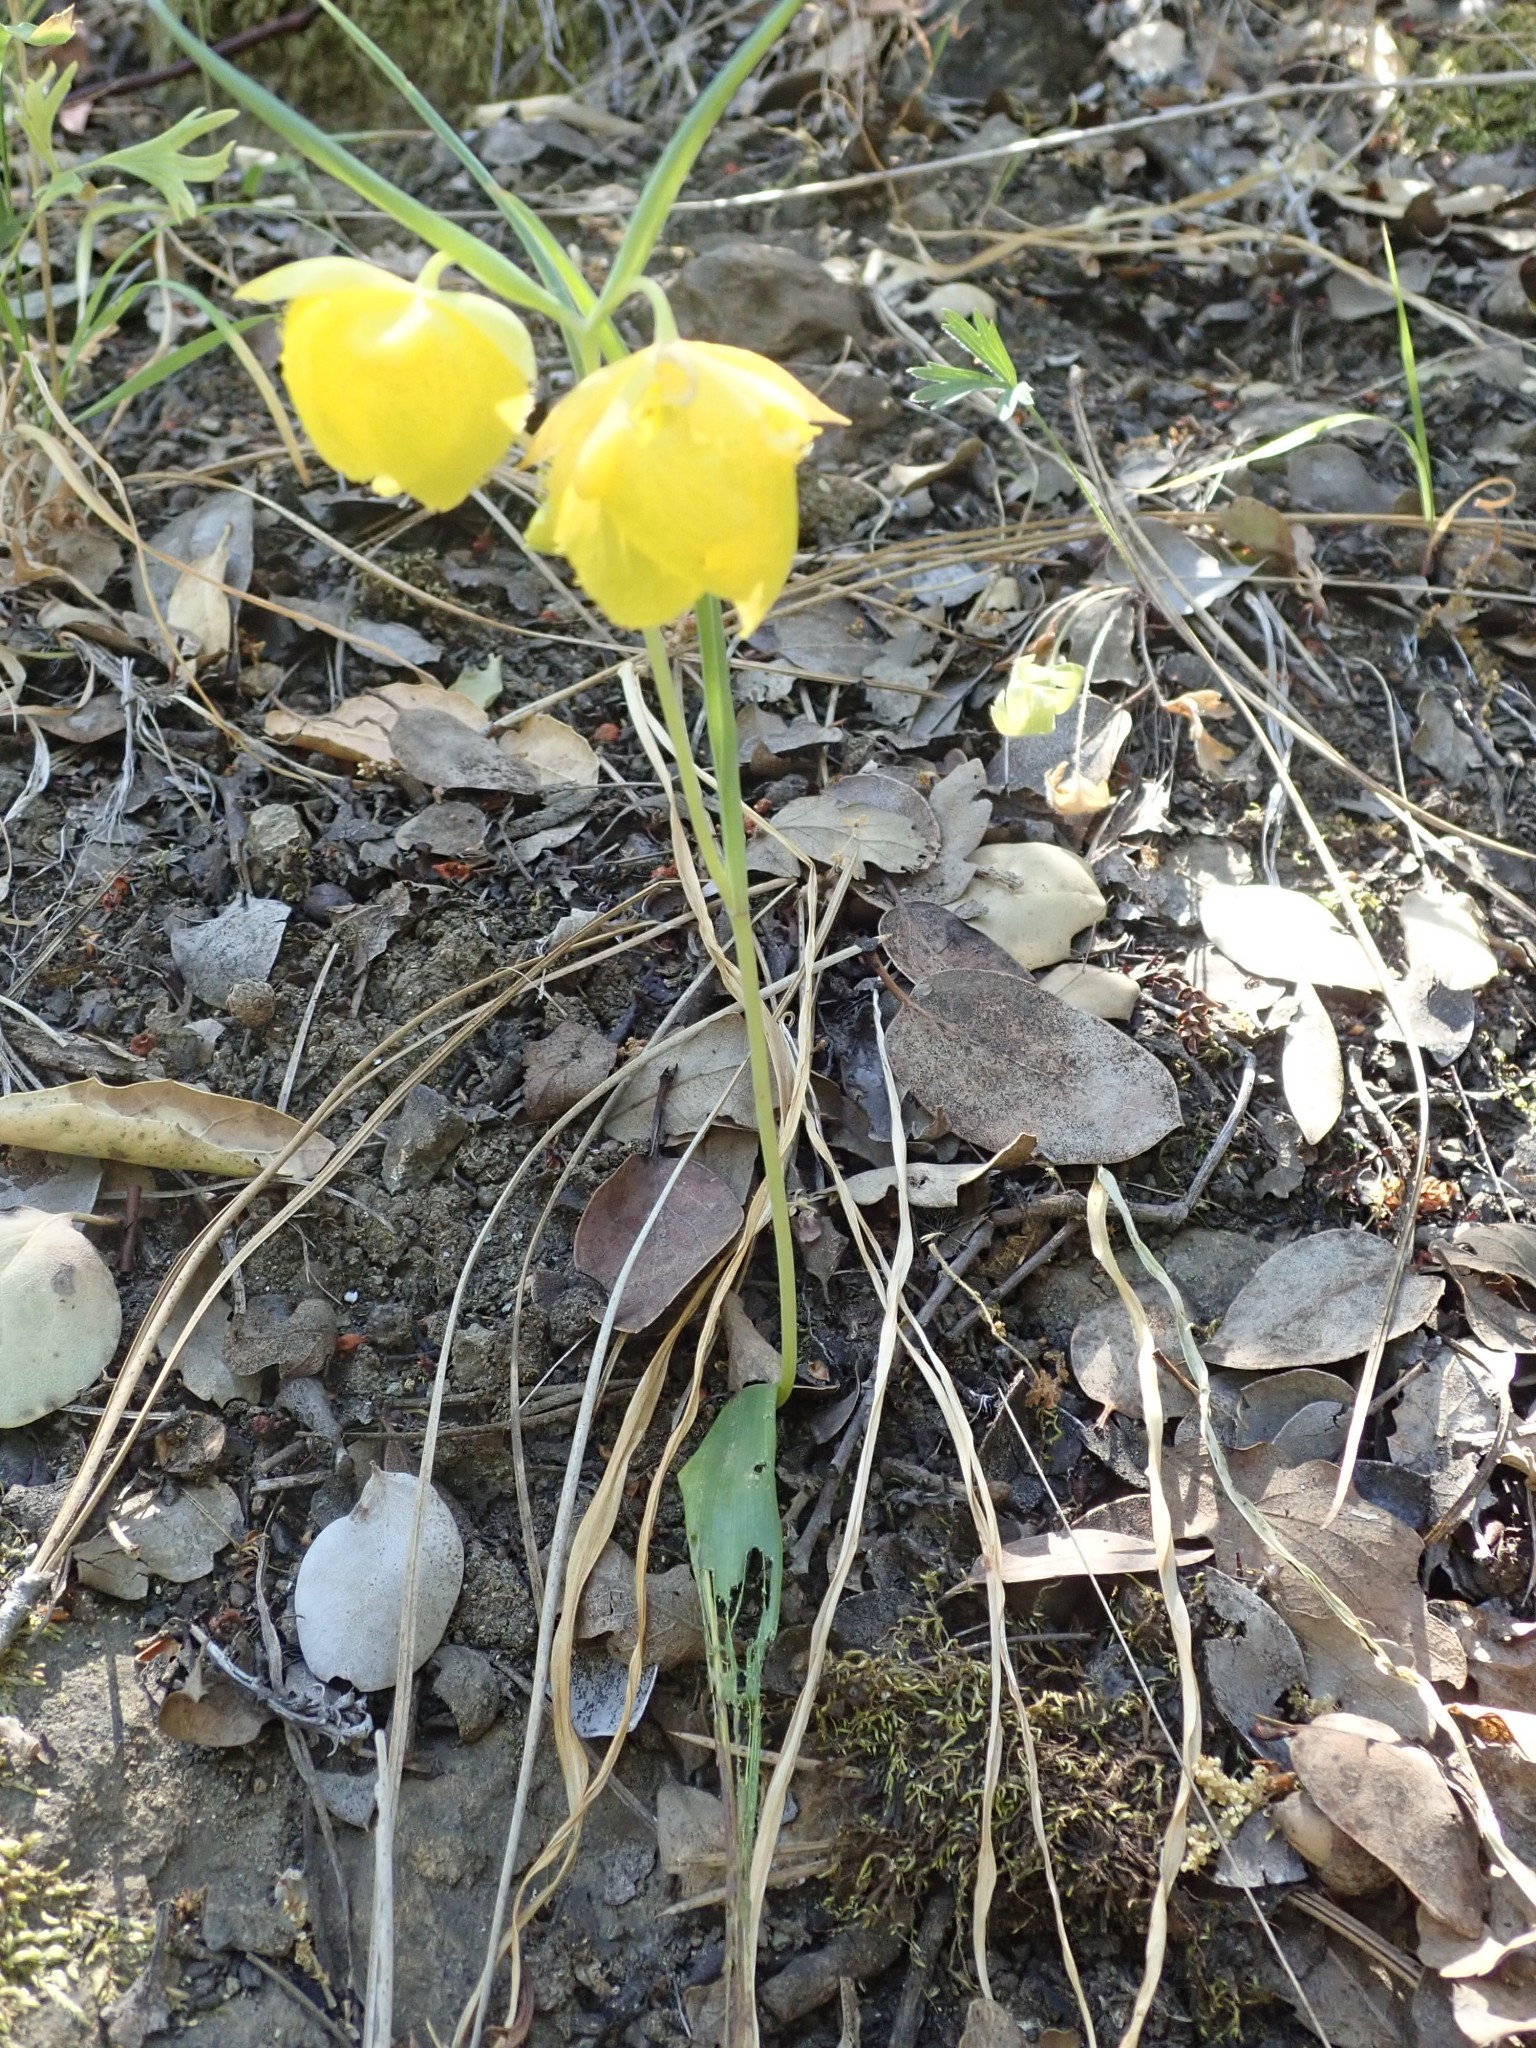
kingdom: Plantae
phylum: Tracheophyta
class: Liliopsida
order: Liliales
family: Liliaceae
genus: Calochortus
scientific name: Calochortus pulchellus
